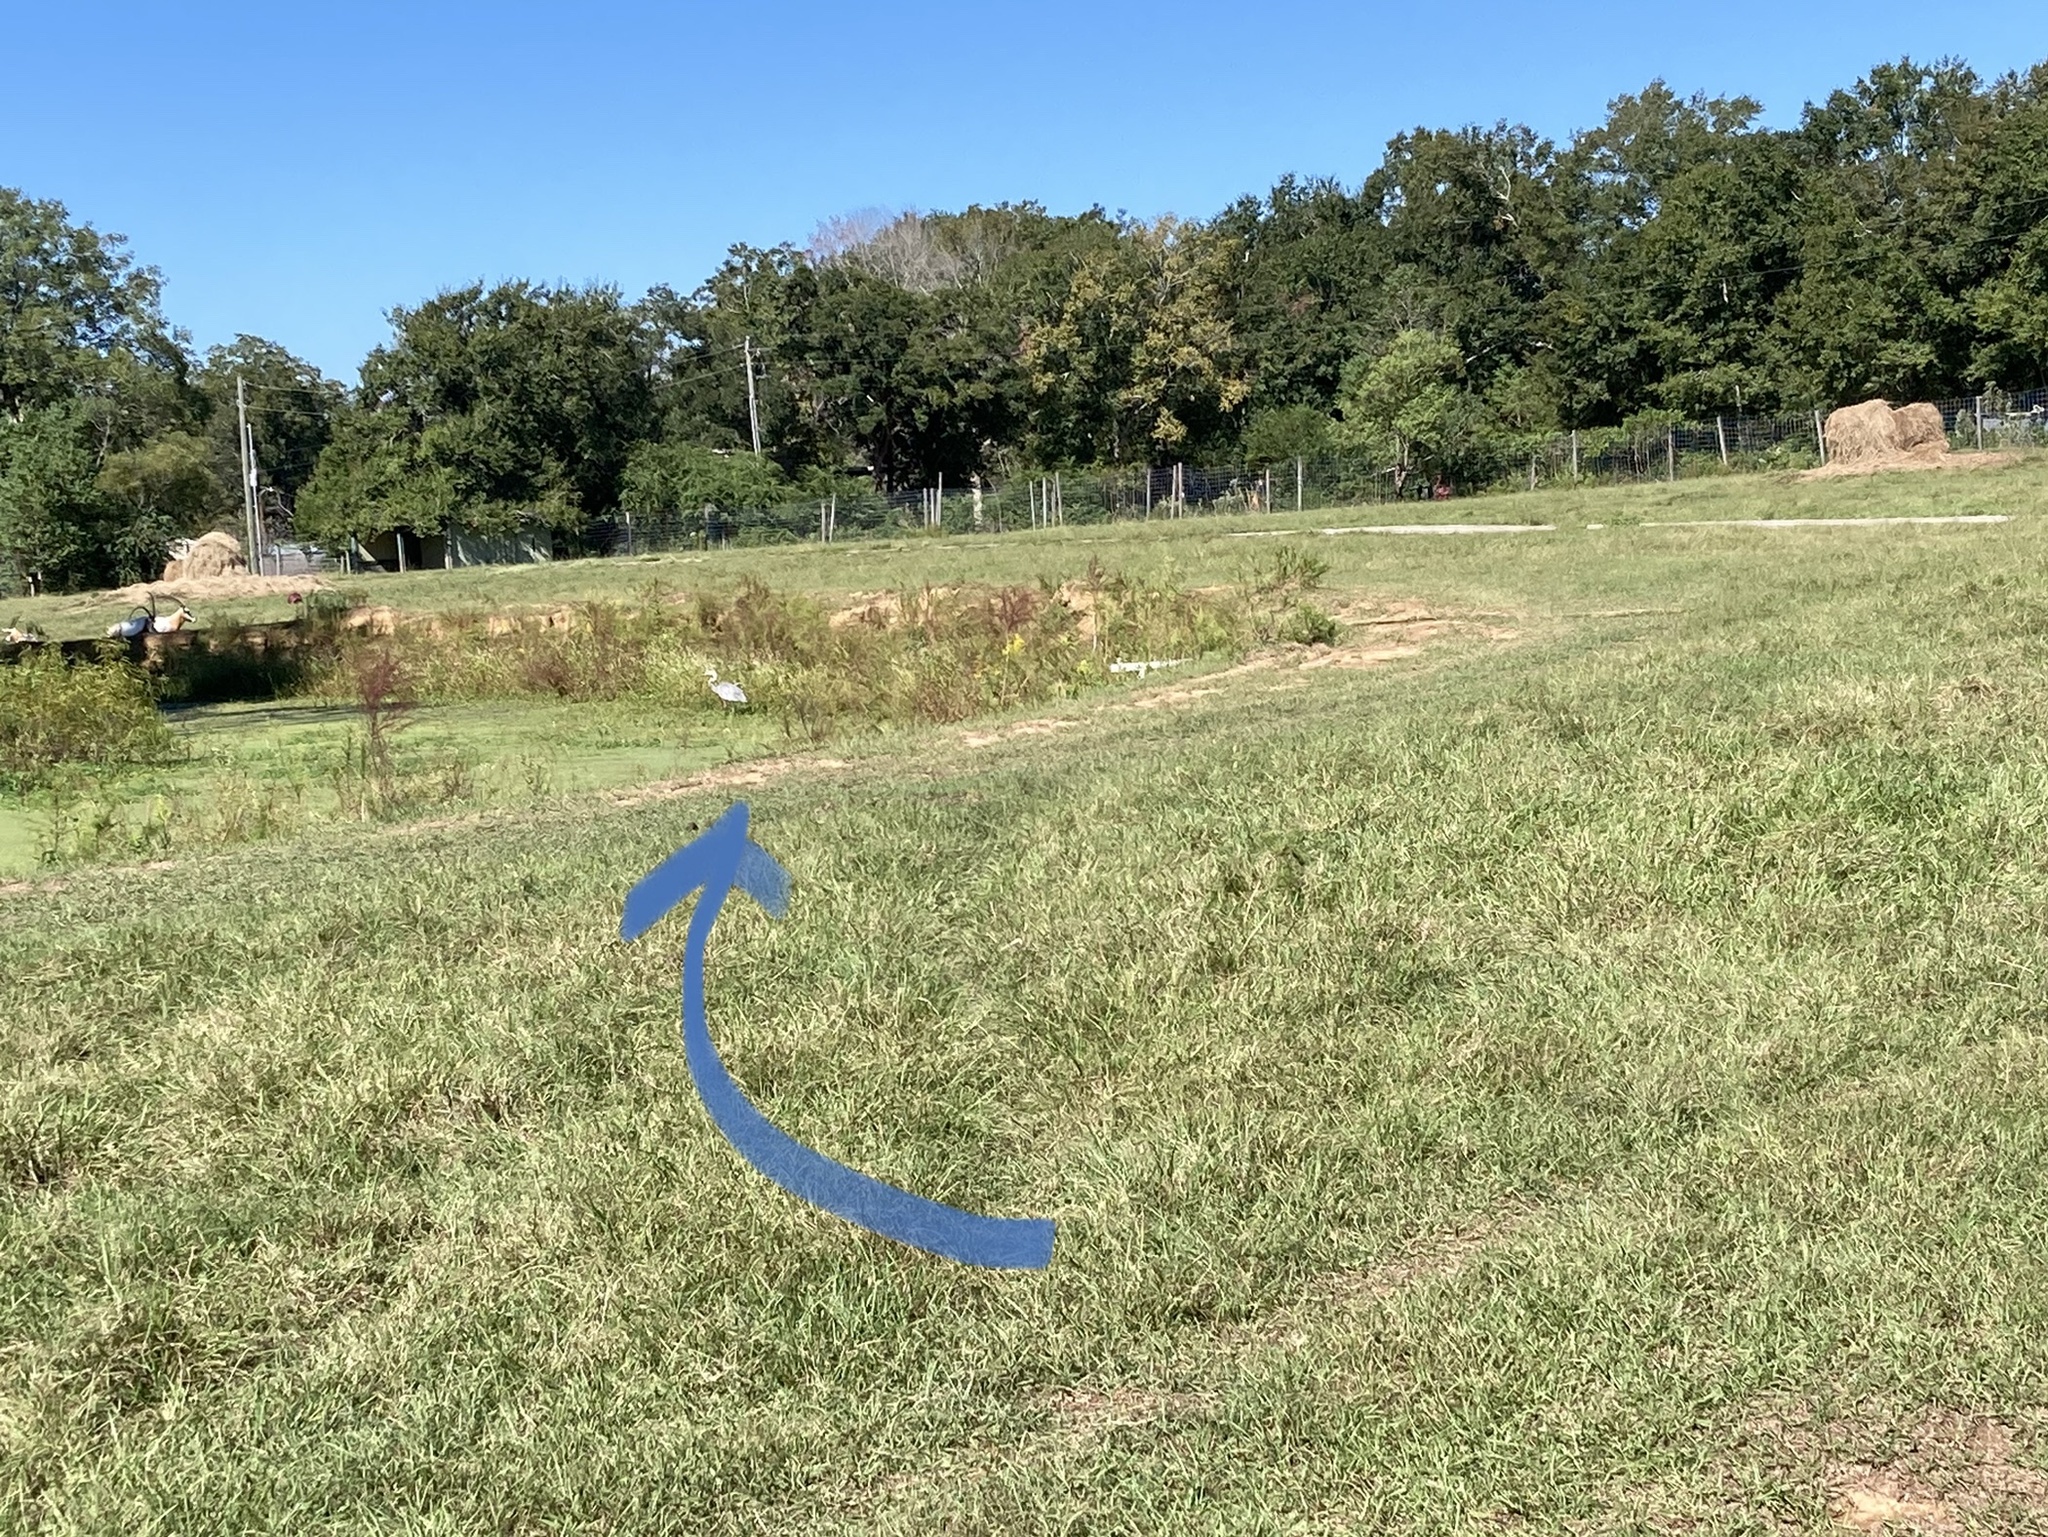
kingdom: Animalia
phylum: Chordata
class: Aves
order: Pelecaniformes
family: Ardeidae
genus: Ardea
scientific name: Ardea herodias
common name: Great blue heron
